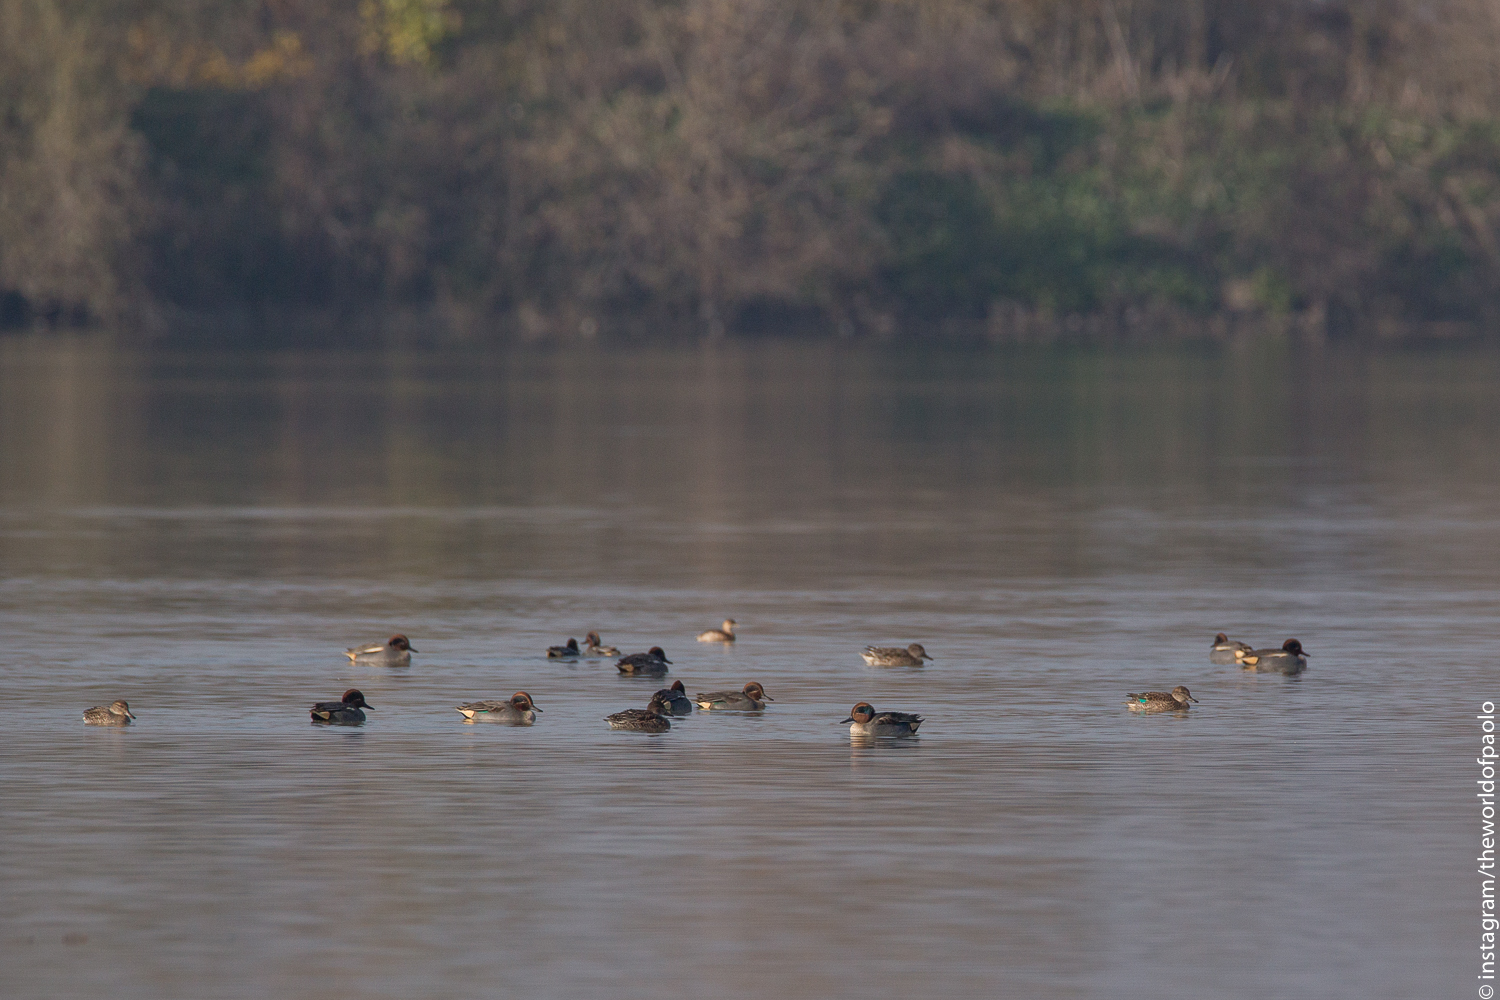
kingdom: Animalia
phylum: Chordata
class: Aves
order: Anseriformes
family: Anatidae
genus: Anas
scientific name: Anas crecca
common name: Eurasian teal
